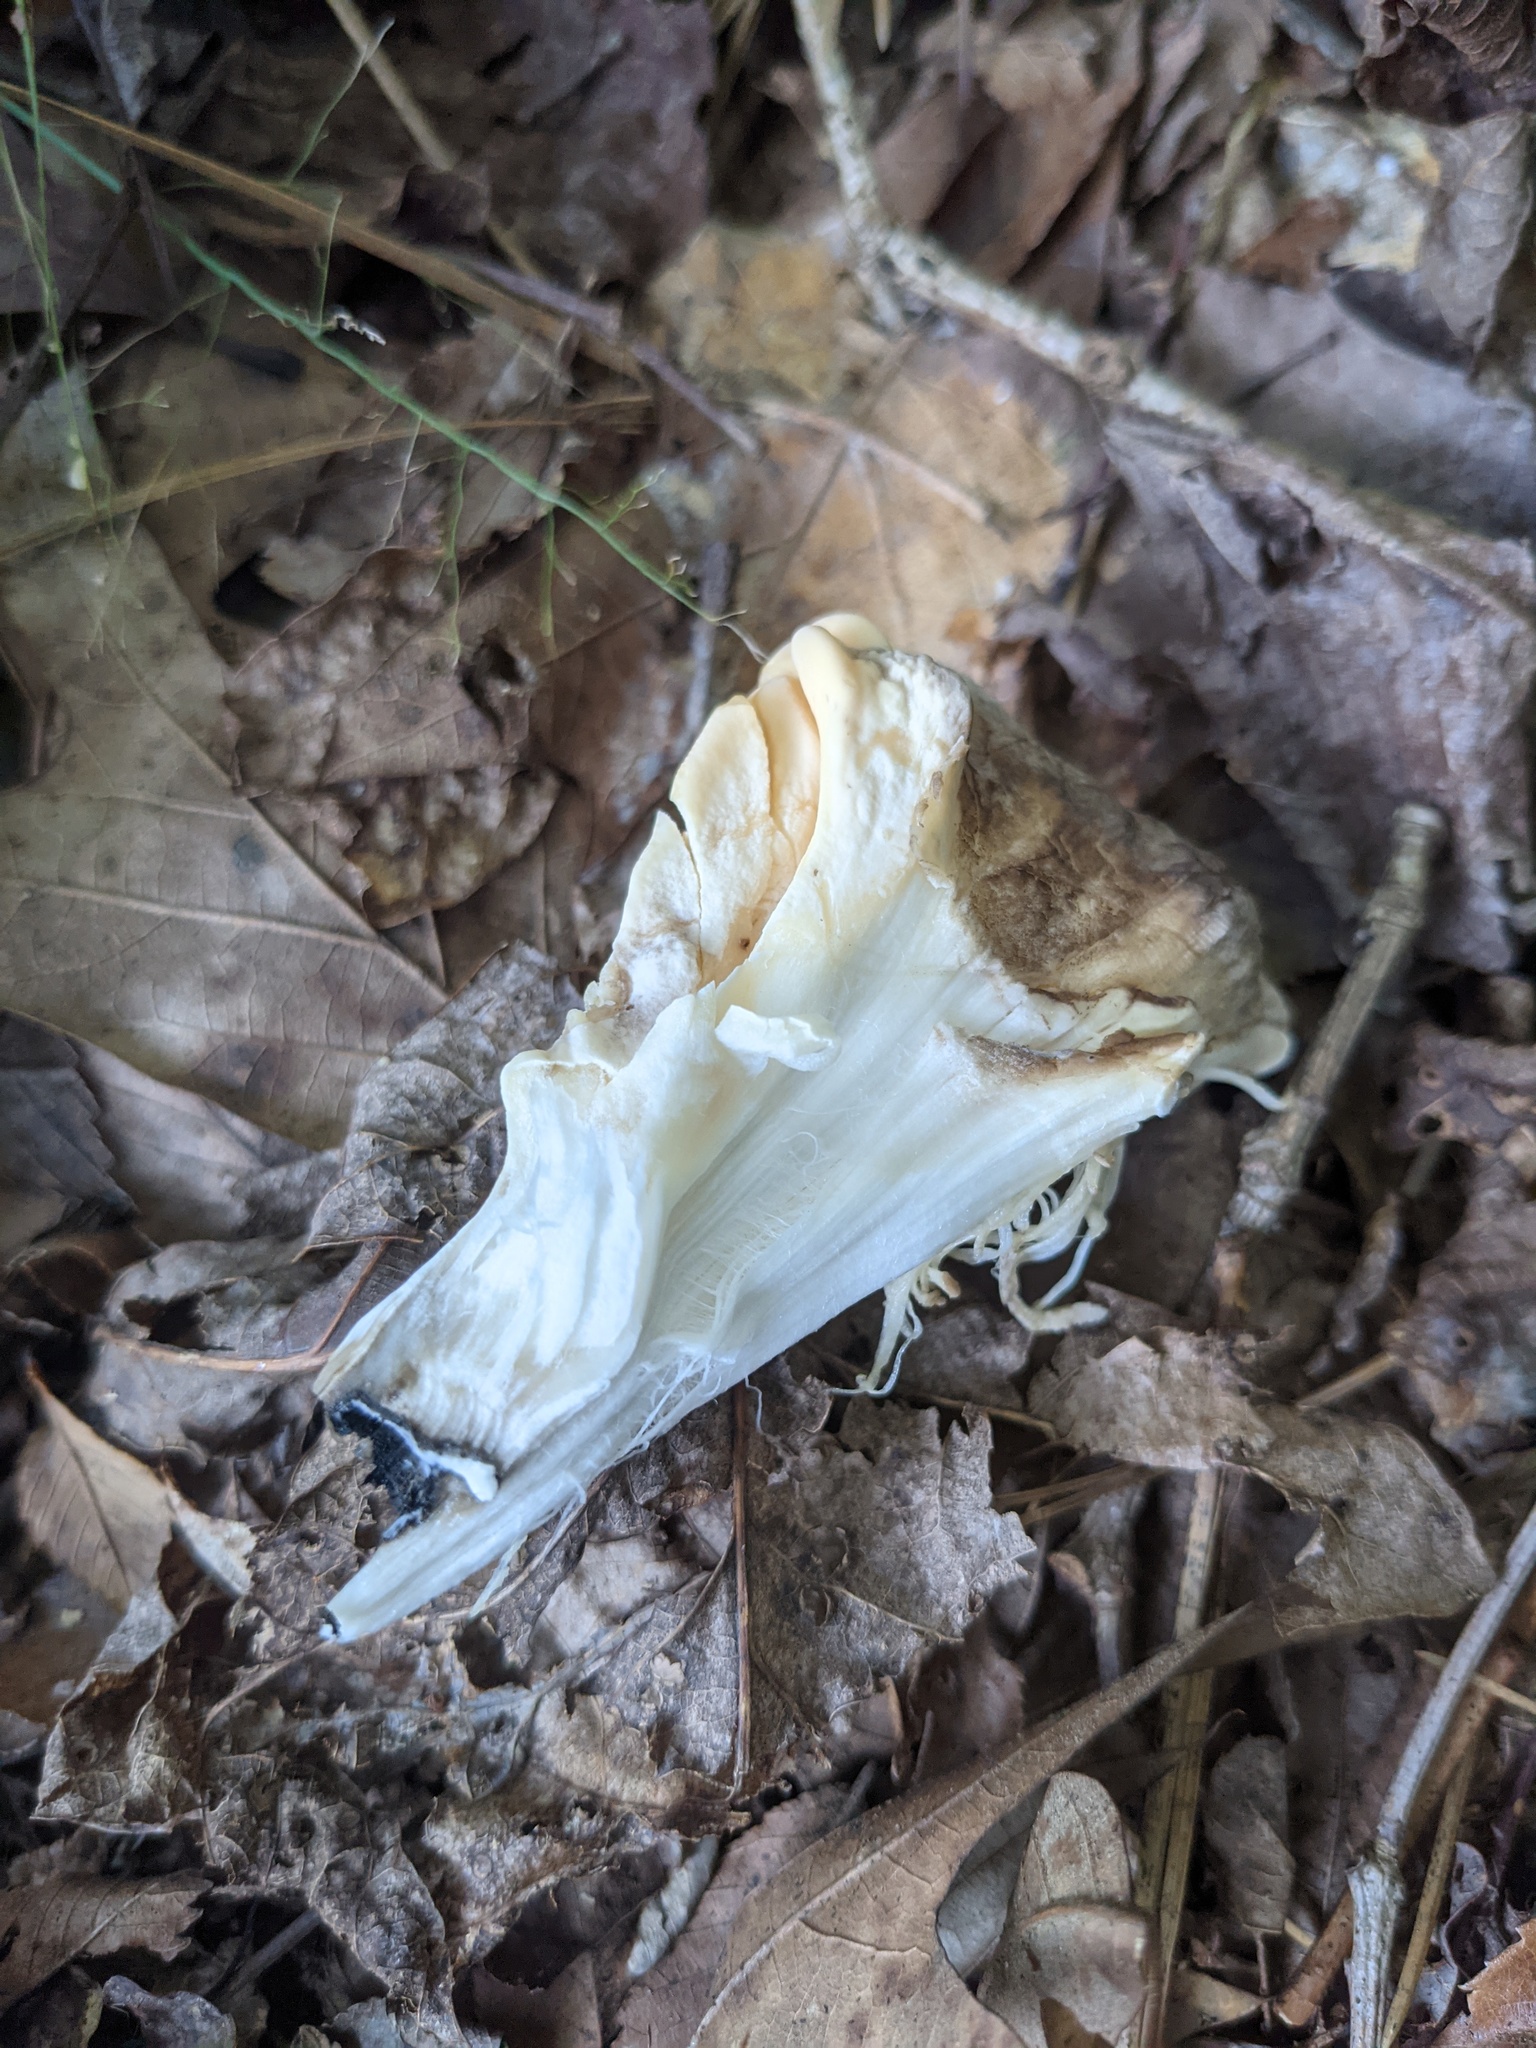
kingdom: Fungi
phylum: Basidiomycota
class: Agaricomycetes
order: Polyporales
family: Meripilaceae
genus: Meripilus
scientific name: Meripilus sumstinei
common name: Black-staining polypore
